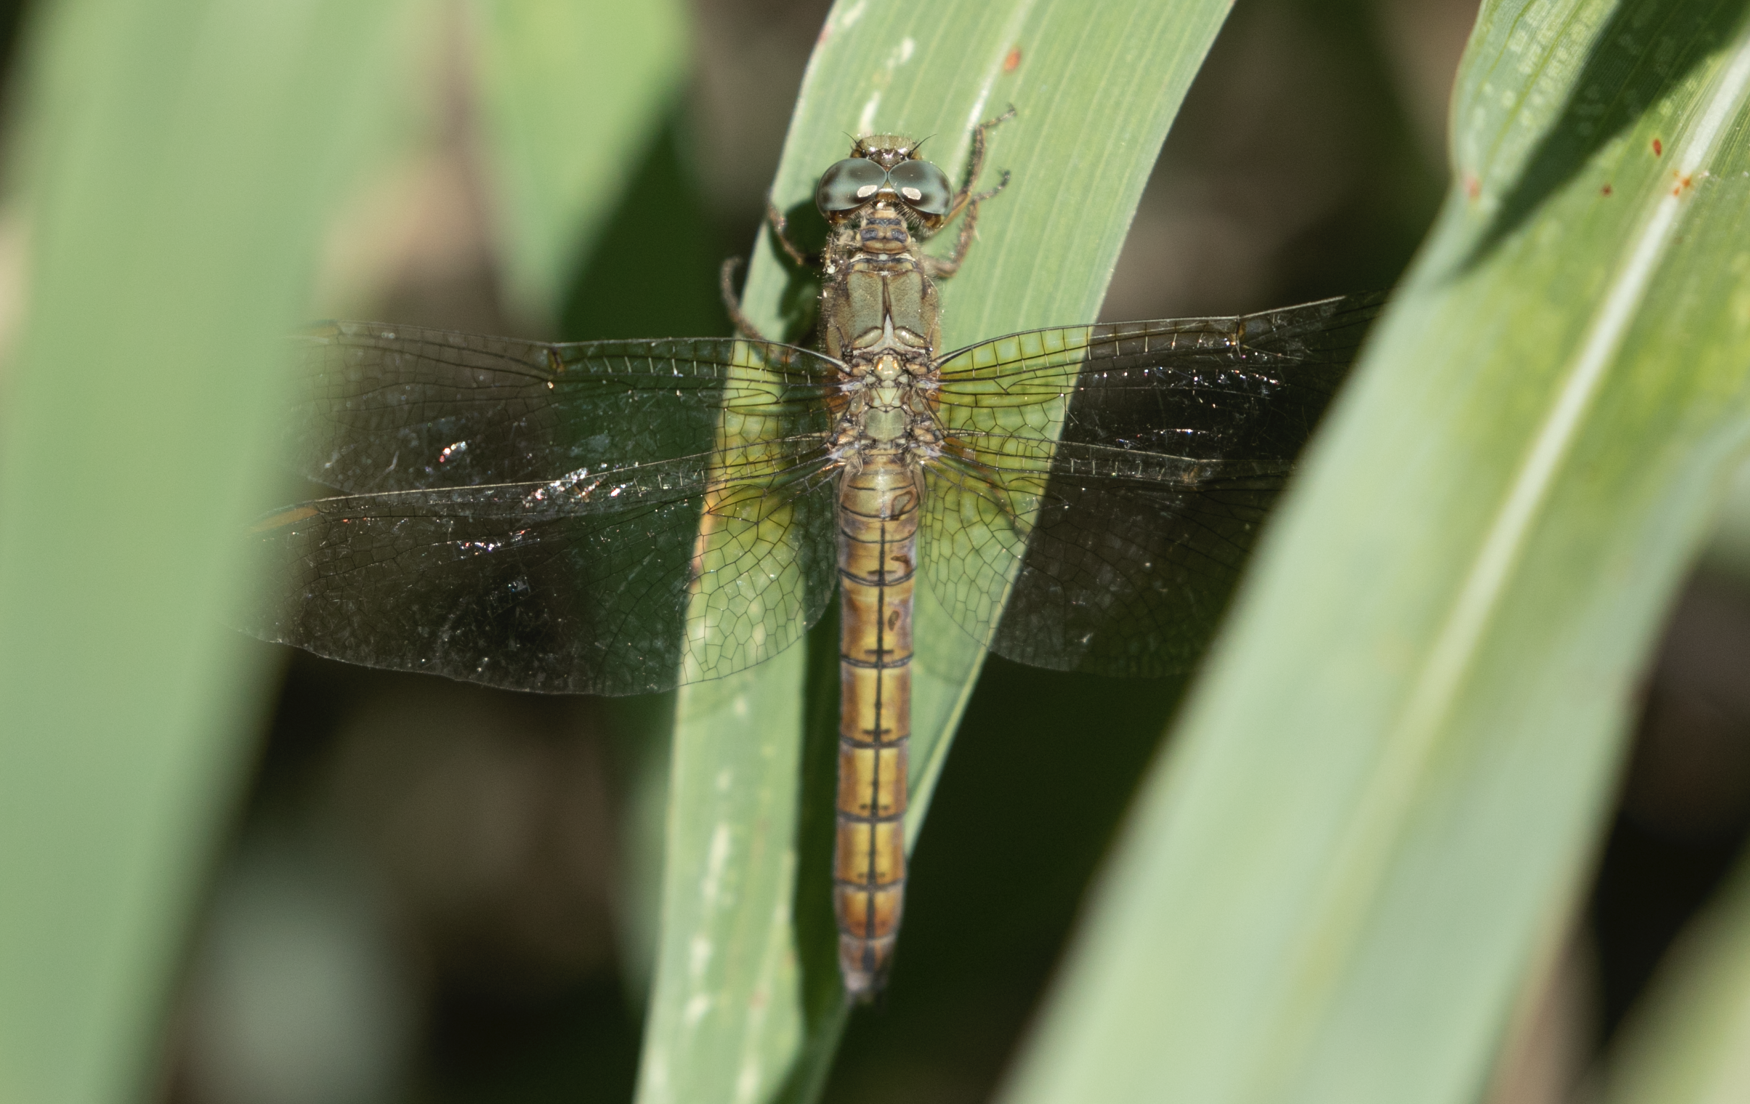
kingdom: Animalia
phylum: Arthropoda
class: Insecta
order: Odonata
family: Libellulidae
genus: Orthetrum
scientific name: Orthetrum coerulescens
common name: Keeled skimmer
